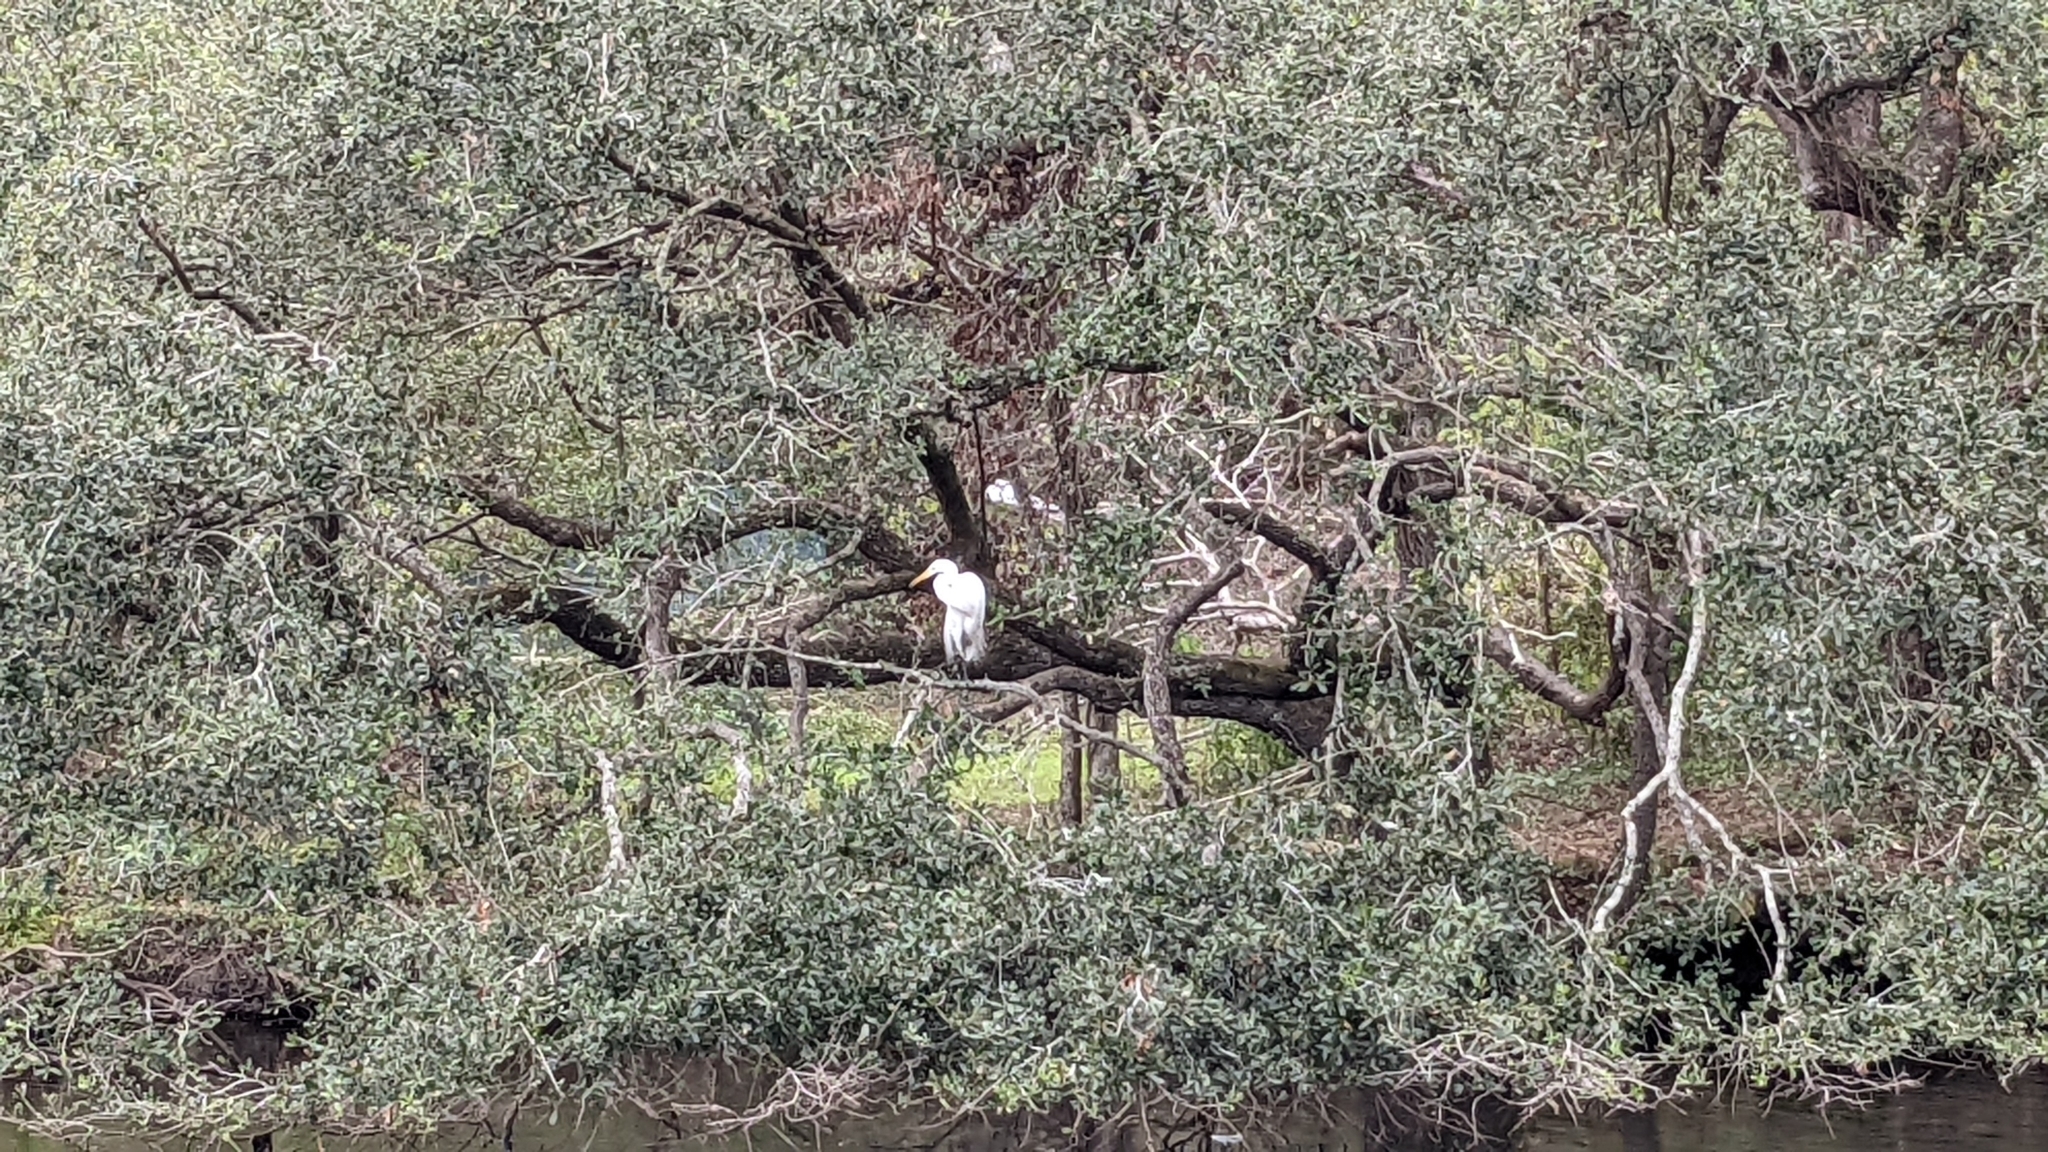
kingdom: Animalia
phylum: Chordata
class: Aves
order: Pelecaniformes
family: Ardeidae
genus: Ardea
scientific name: Ardea alba
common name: Great egret
